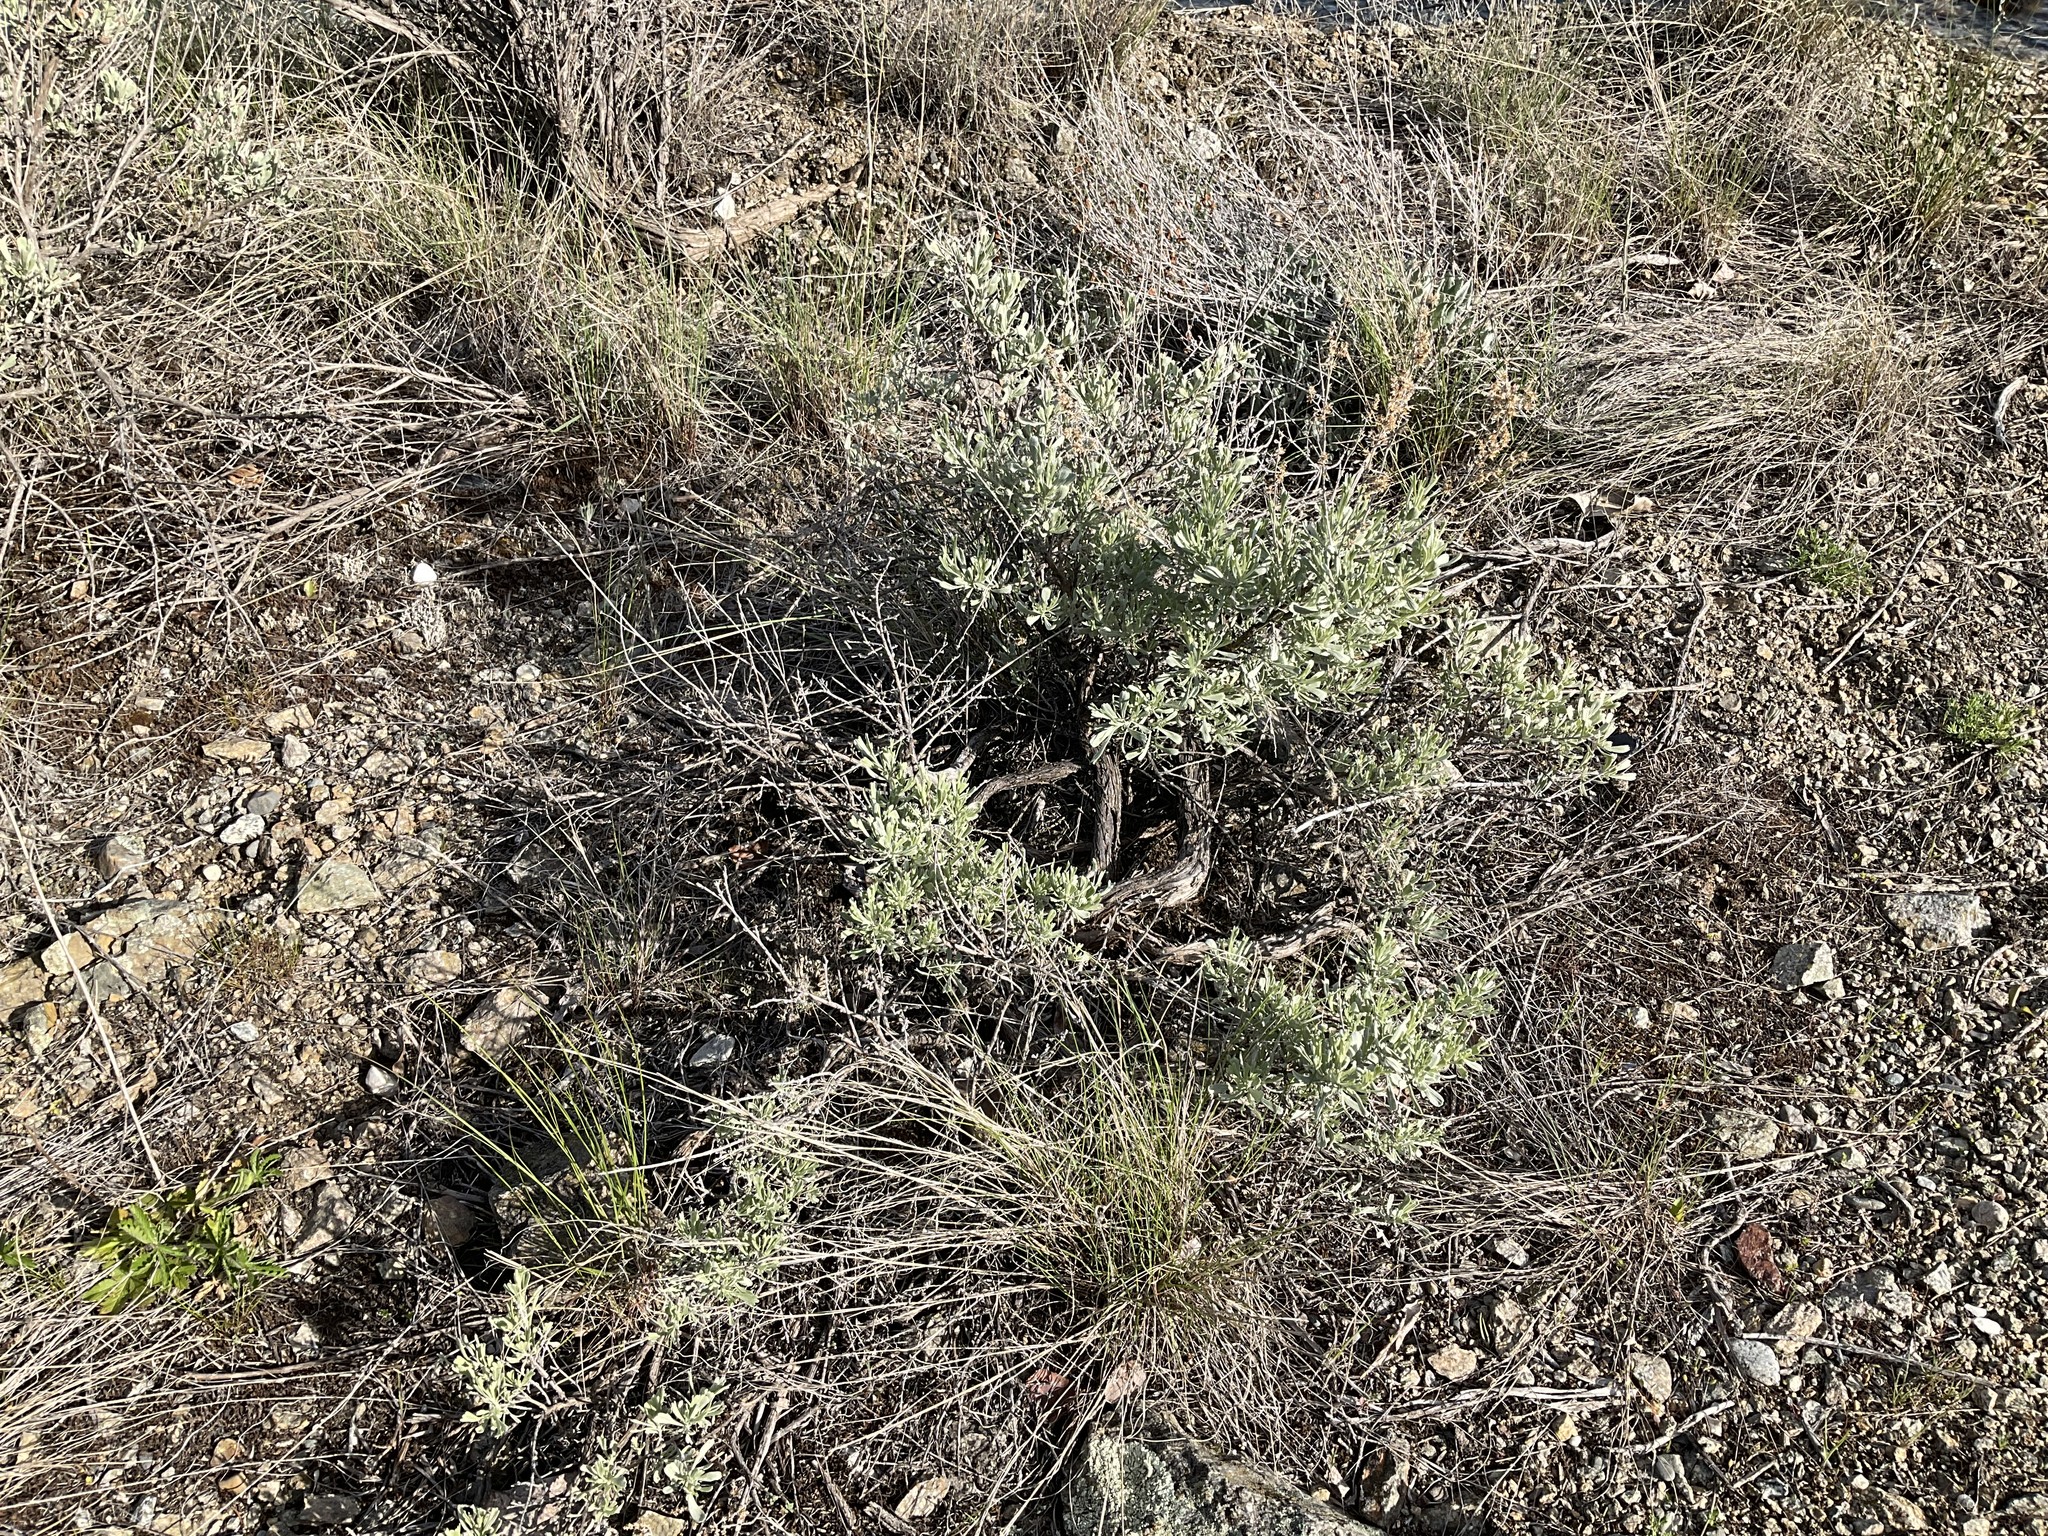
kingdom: Plantae
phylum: Tracheophyta
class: Magnoliopsida
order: Asterales
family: Asteraceae
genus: Artemisia
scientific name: Artemisia tridentata
